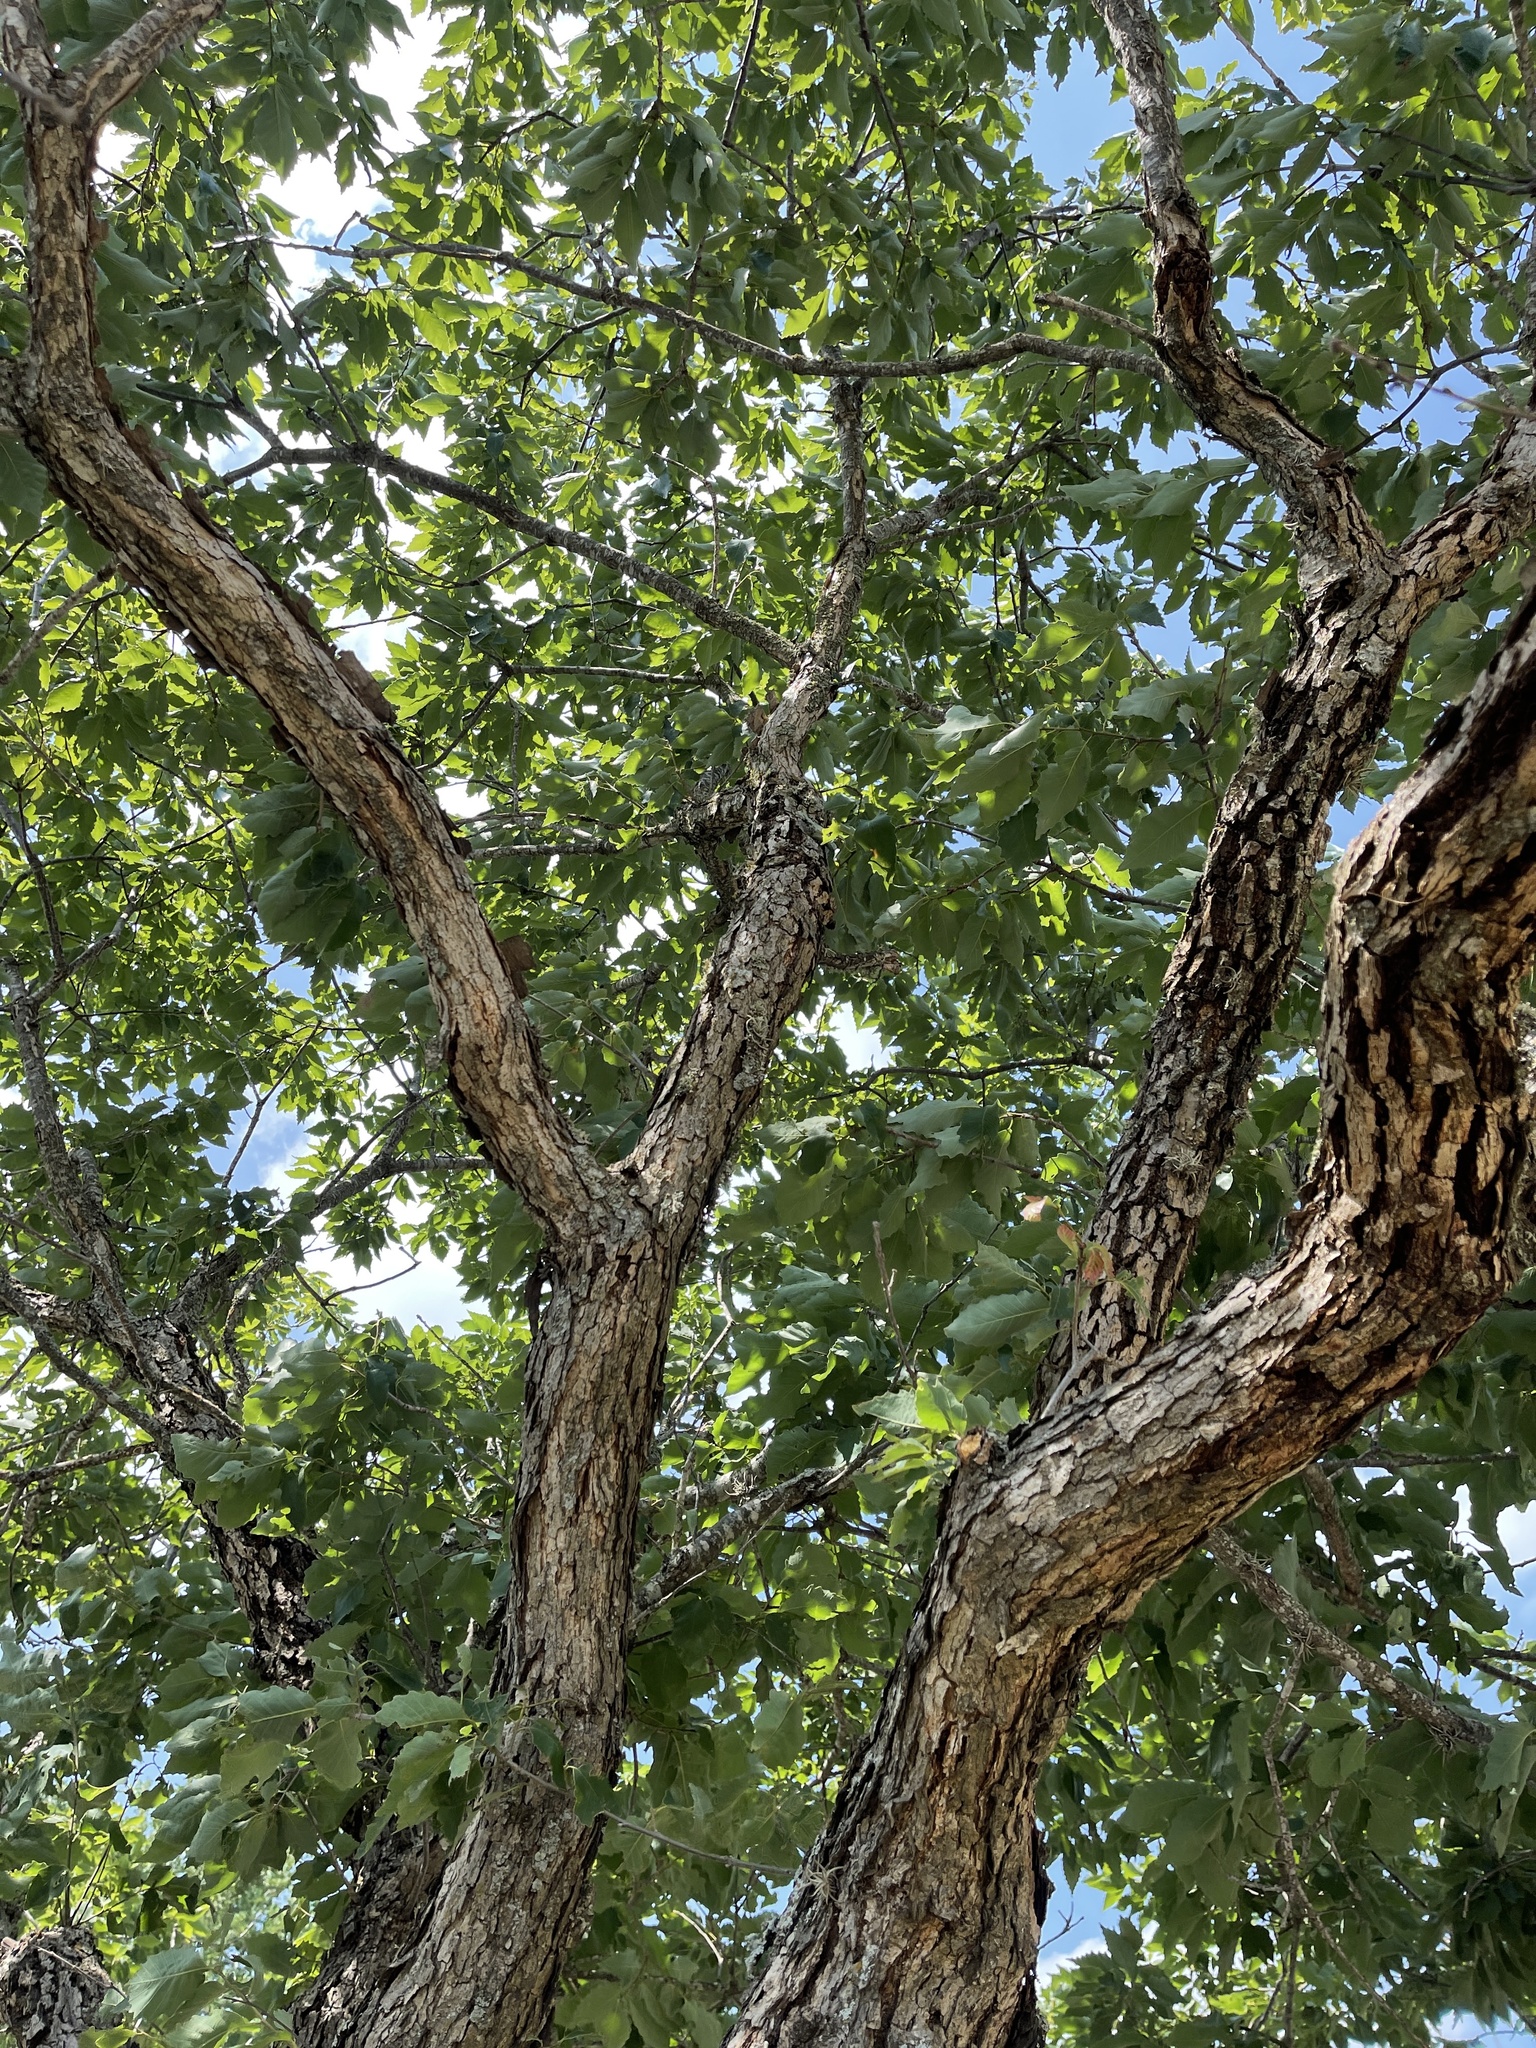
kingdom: Plantae
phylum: Tracheophyta
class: Magnoliopsida
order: Fagales
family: Fagaceae
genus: Quercus
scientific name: Quercus muehlenbergii
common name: Chinkapin oak
